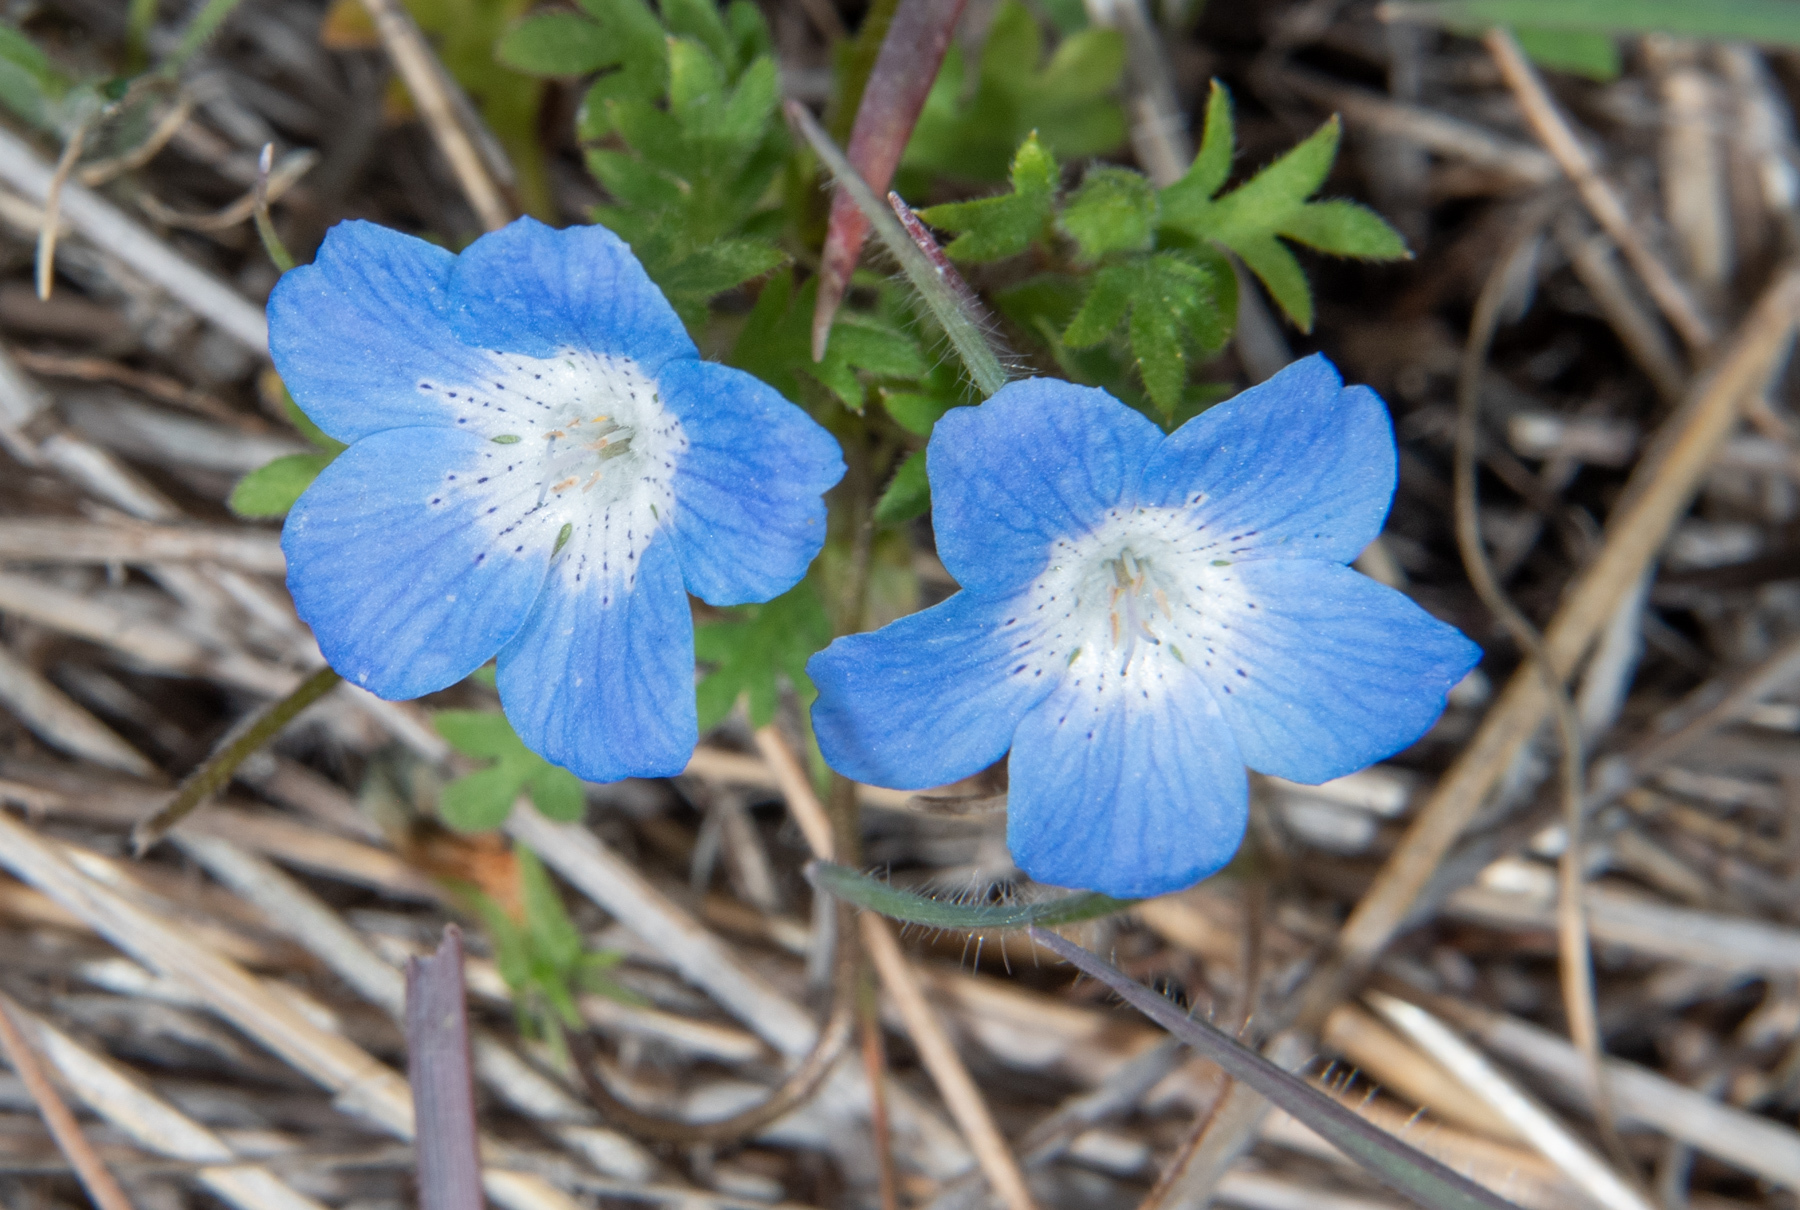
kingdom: Plantae
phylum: Tracheophyta
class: Magnoliopsida
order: Boraginales
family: Hydrophyllaceae
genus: Nemophila
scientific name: Nemophila menziesii
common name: Baby's-blue-eyes
